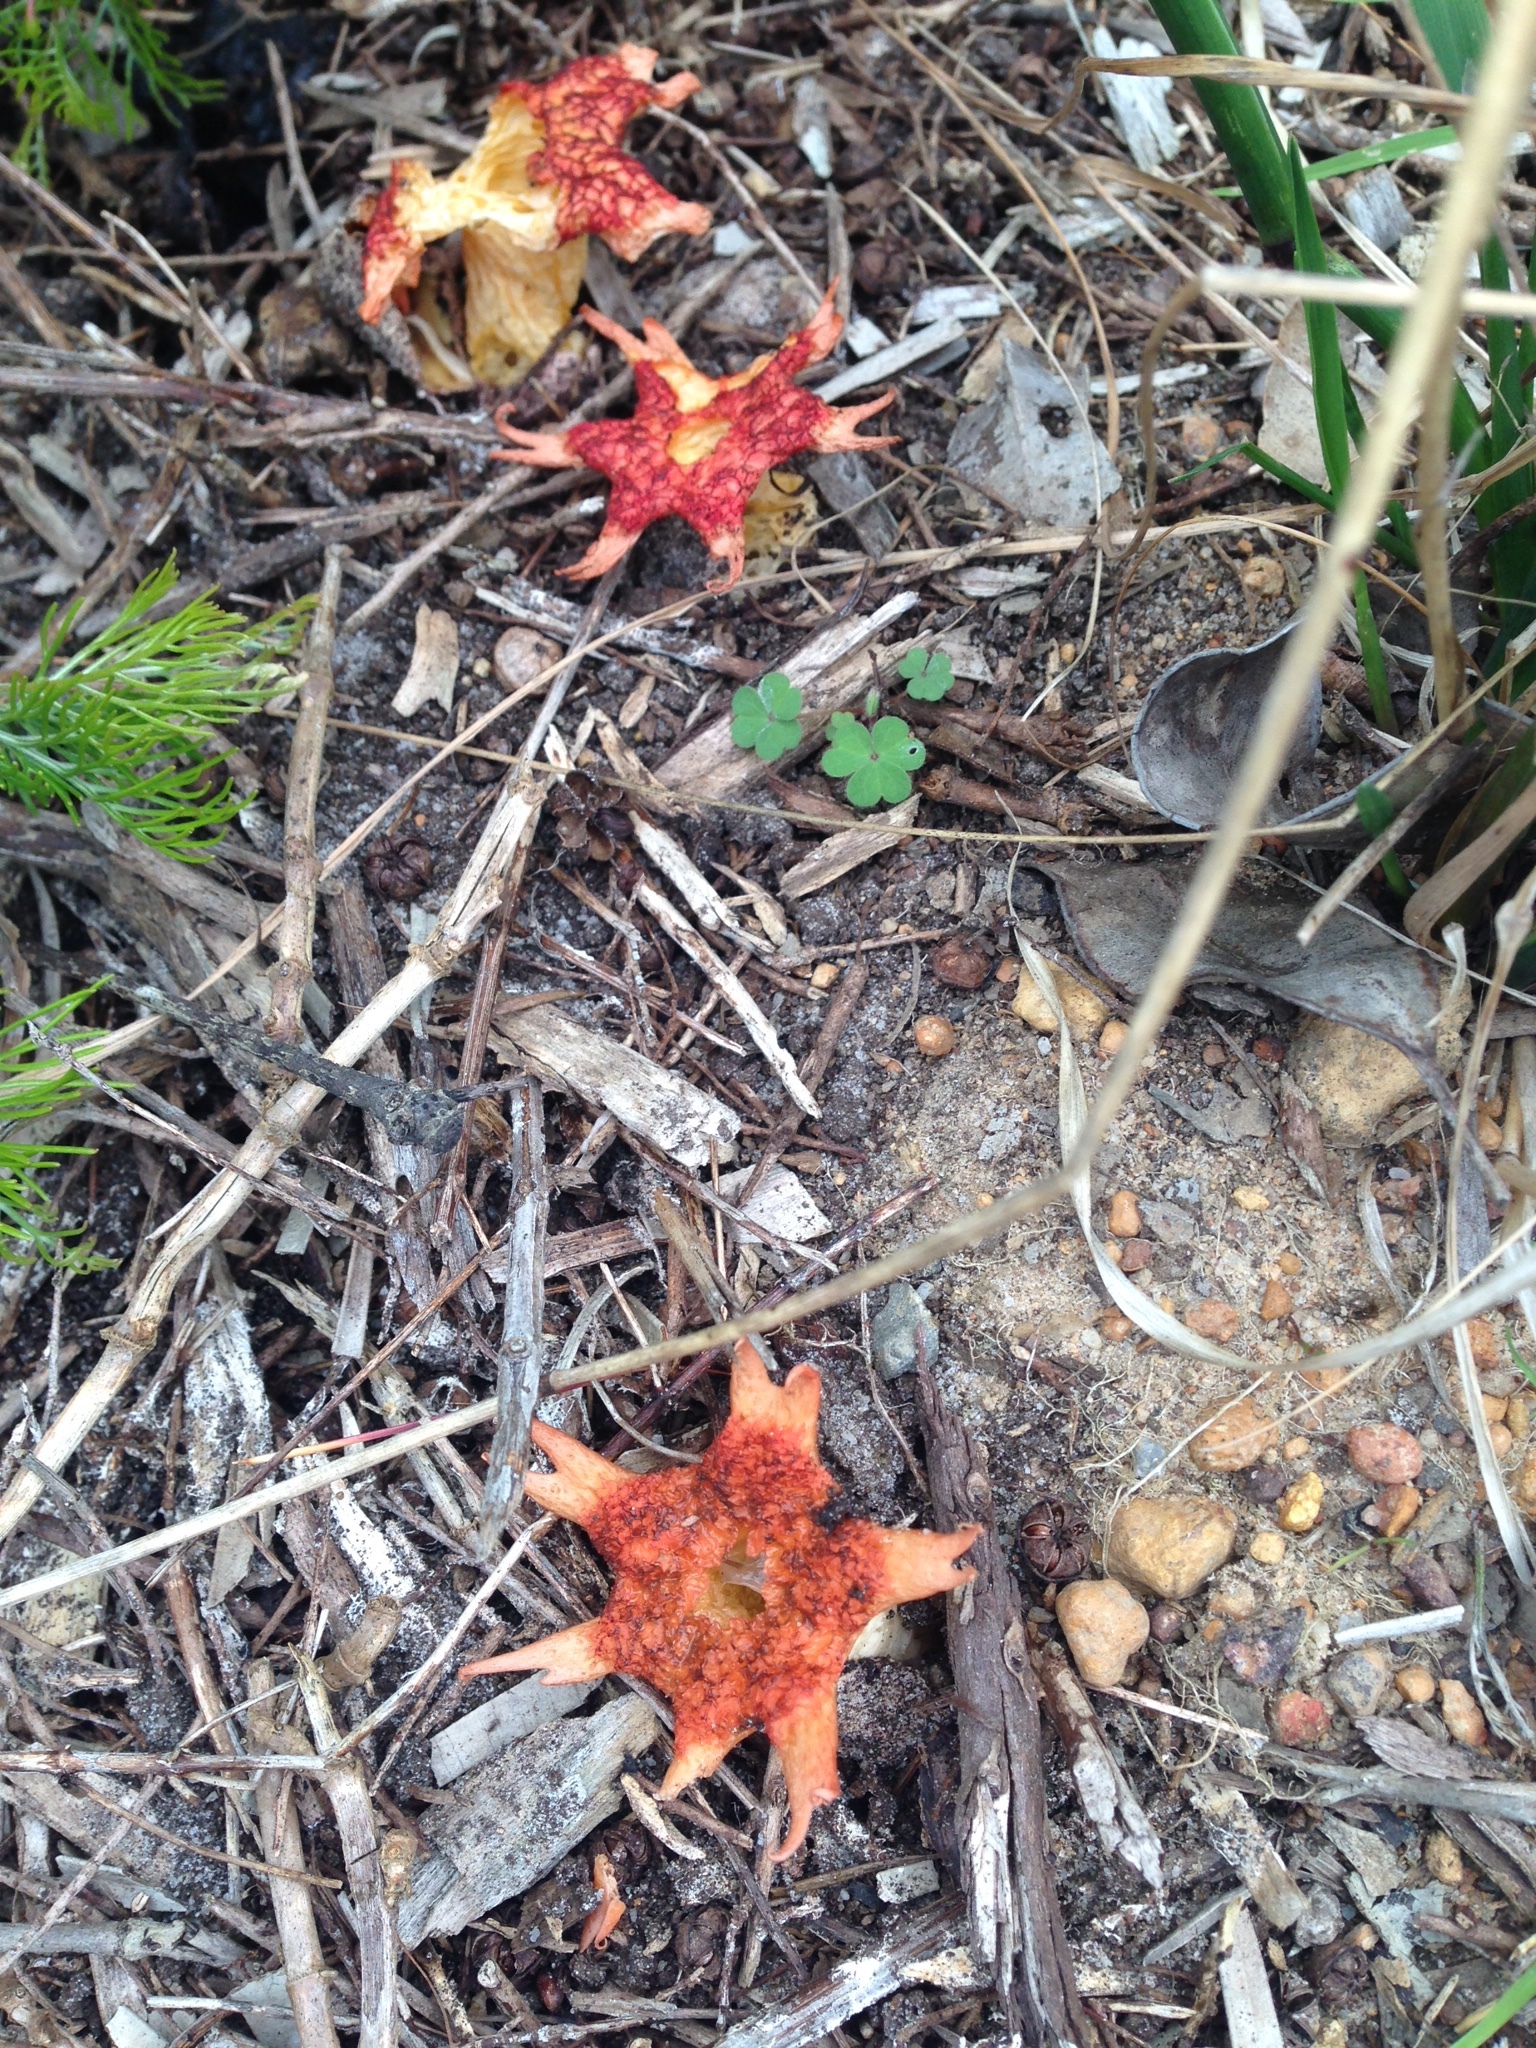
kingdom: Fungi
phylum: Basidiomycota
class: Agaricomycetes
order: Phallales
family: Phallaceae
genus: Aseroe
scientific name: Aseroe rubra
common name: Starfish fungus
